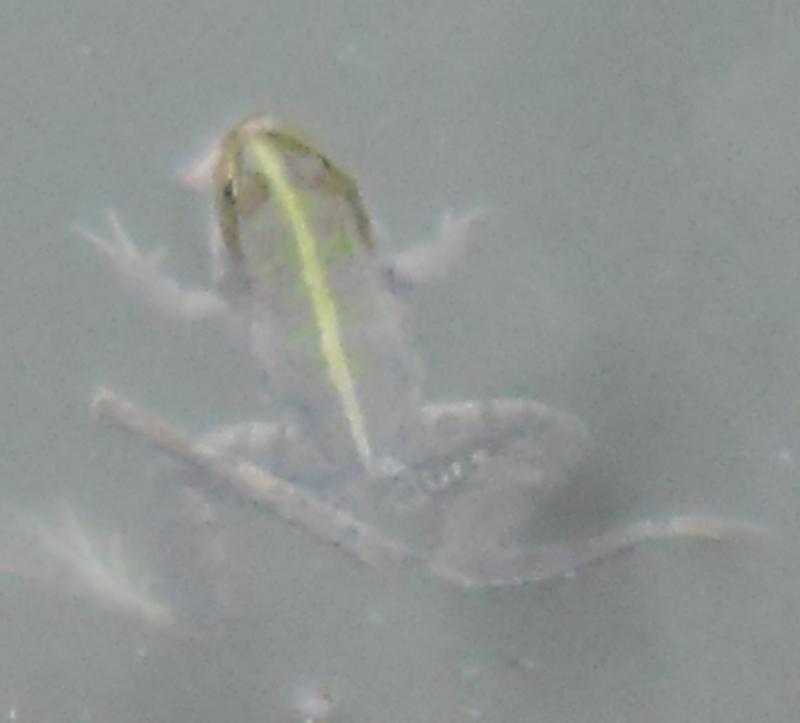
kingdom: Animalia
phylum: Chordata
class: Amphibia
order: Anura
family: Ranidae
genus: Pelophylax
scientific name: Pelophylax ridibundus
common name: Marsh frog
